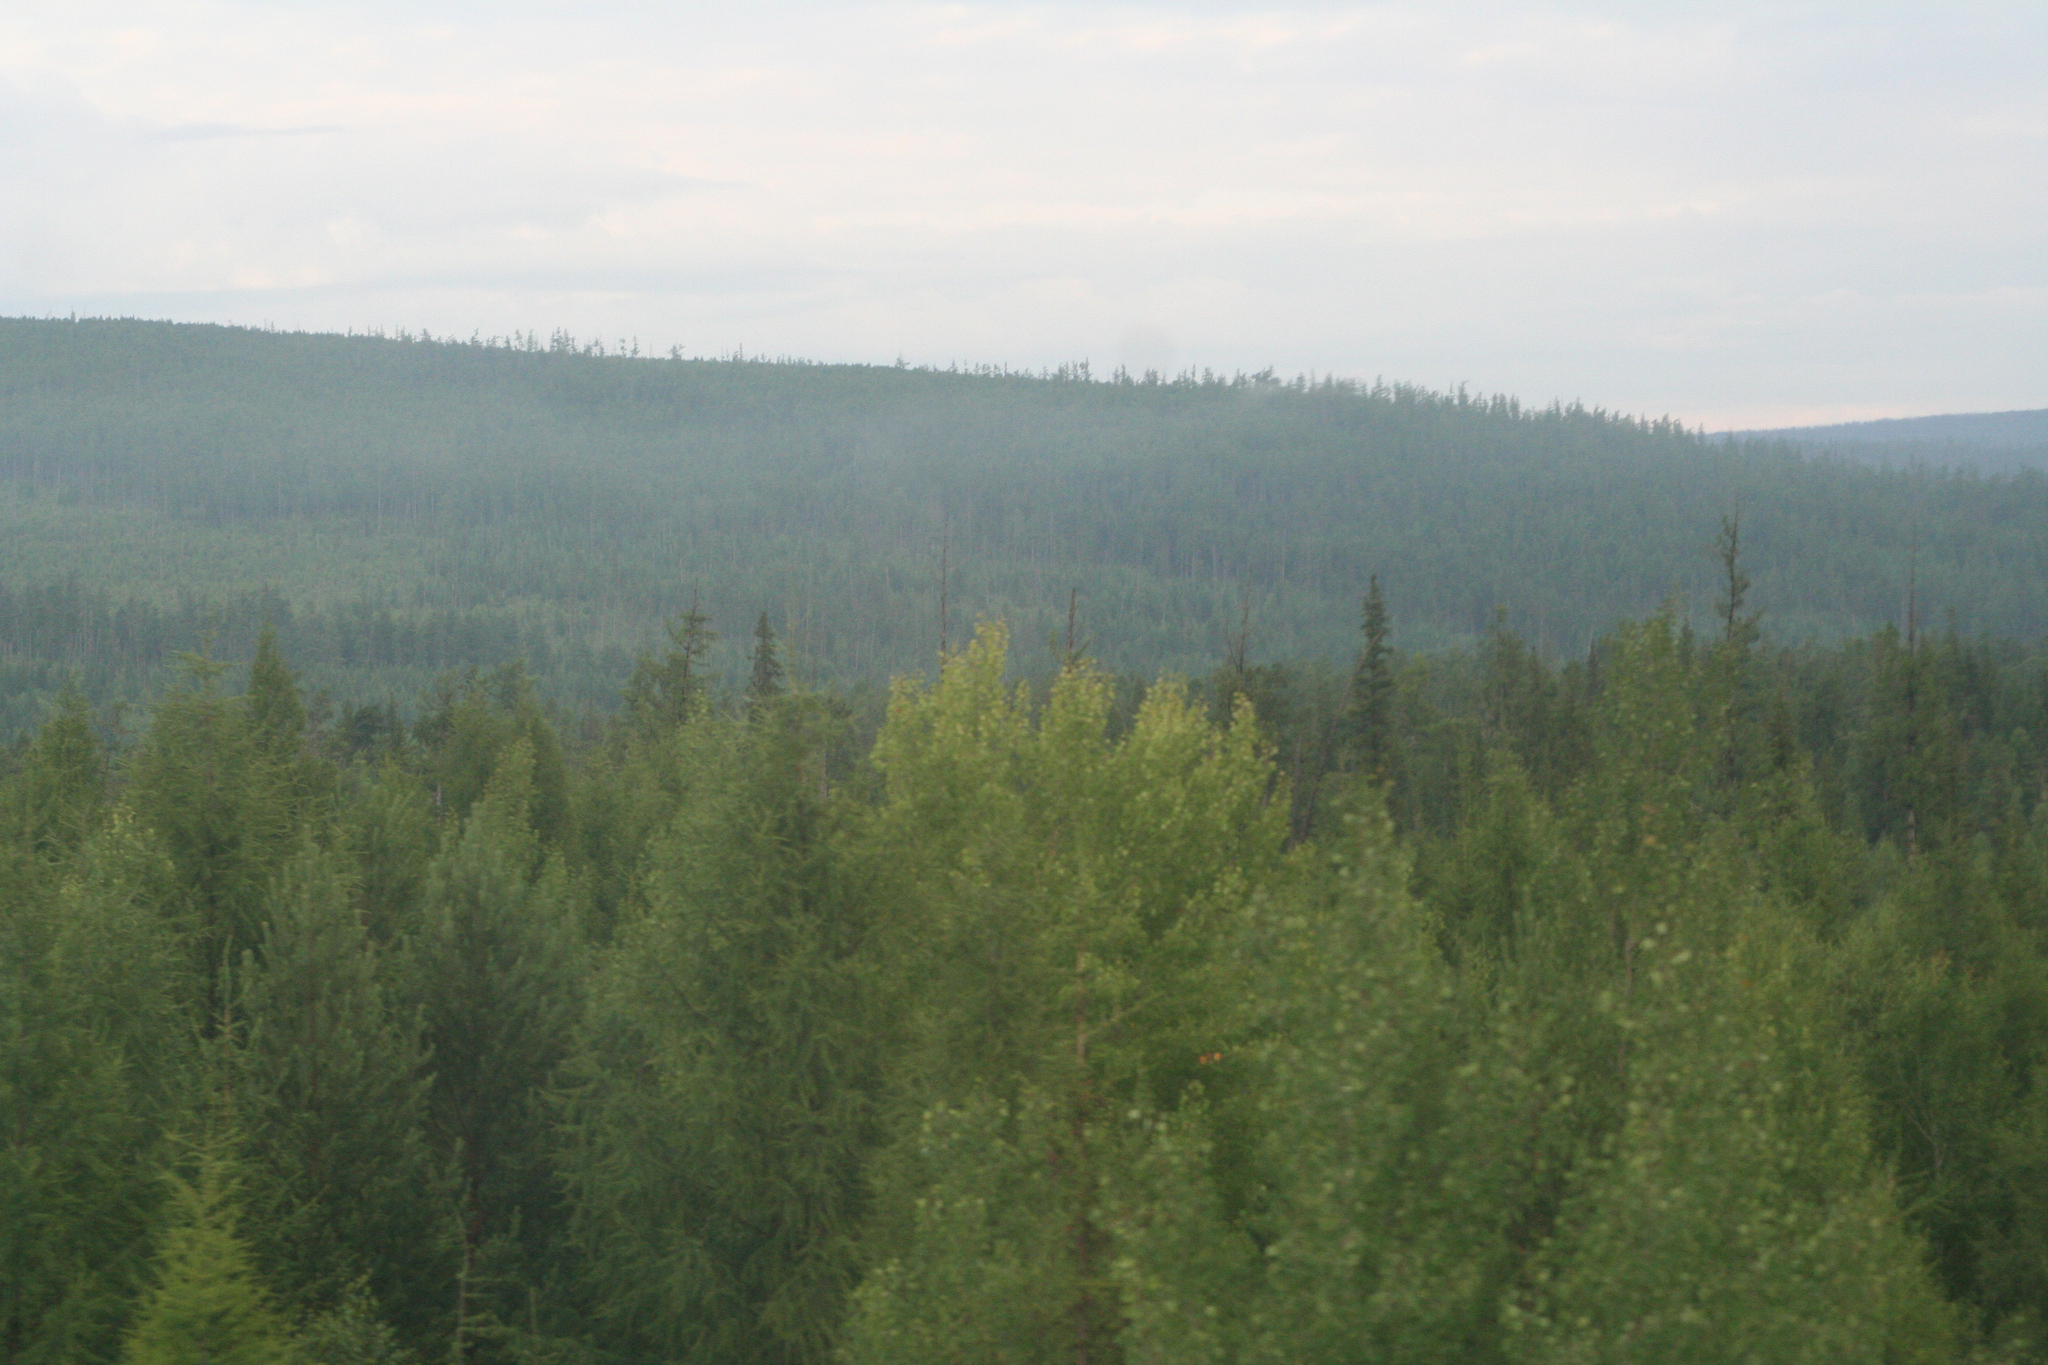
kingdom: Plantae
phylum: Tracheophyta
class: Pinopsida
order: Pinales
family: Pinaceae
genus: Picea
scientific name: Picea obovata
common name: Siberian spruce
